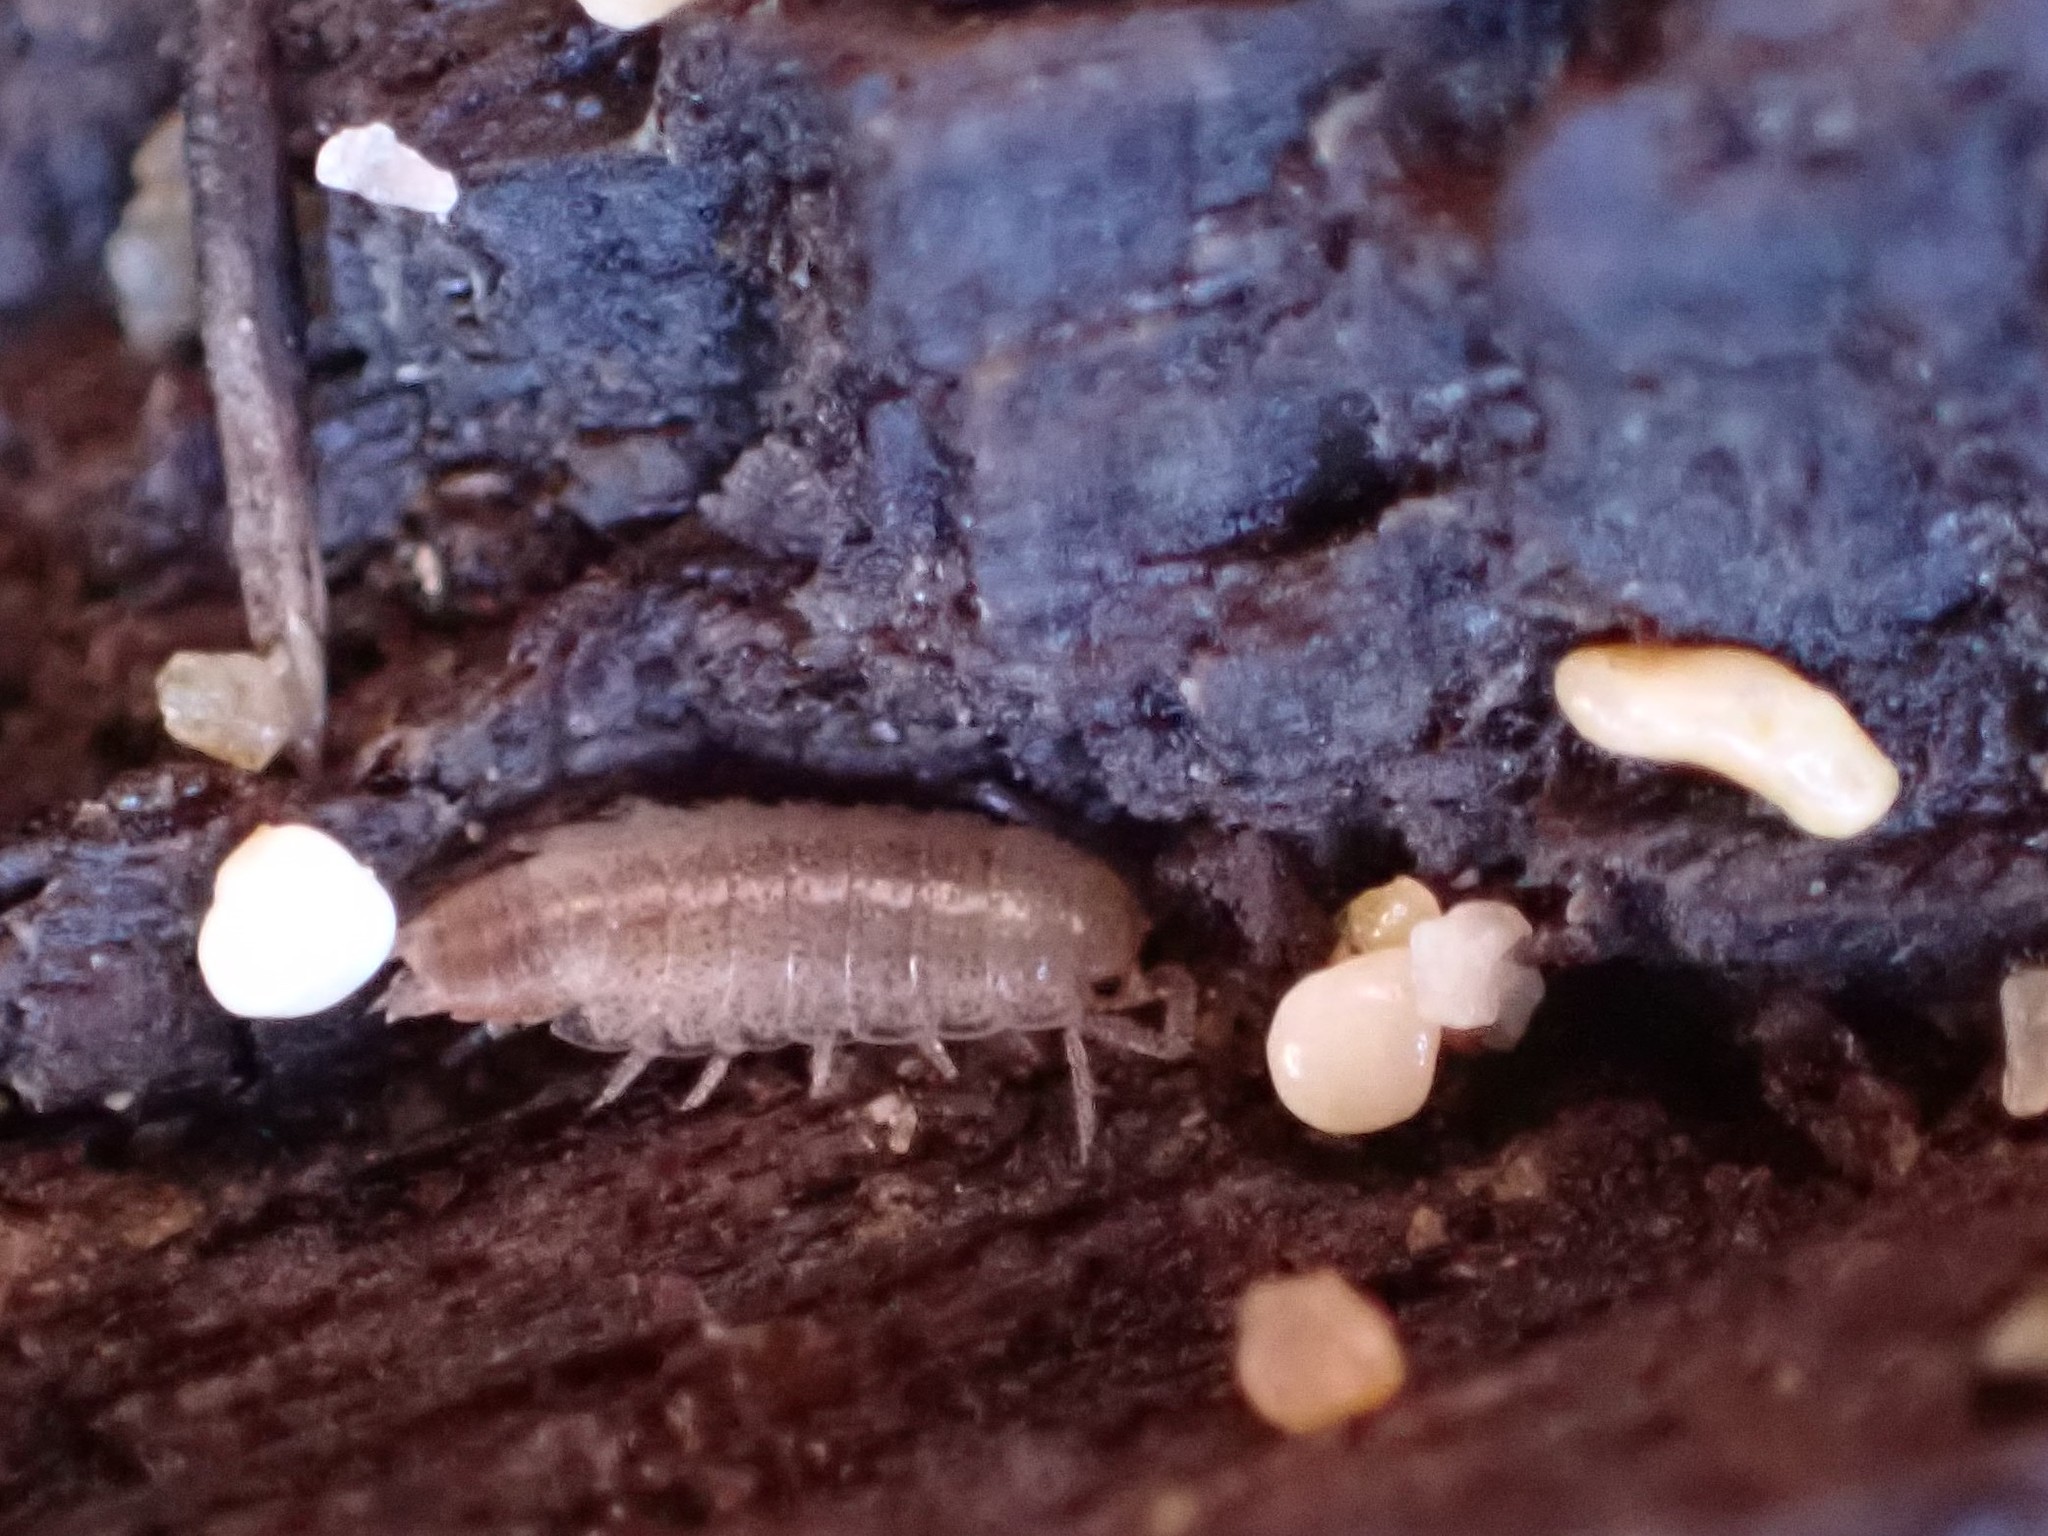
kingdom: Animalia
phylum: Arthropoda
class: Malacostraca
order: Isopoda
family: Halophilosciidae
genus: Littorophiloscia
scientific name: Littorophiloscia tropicalis
